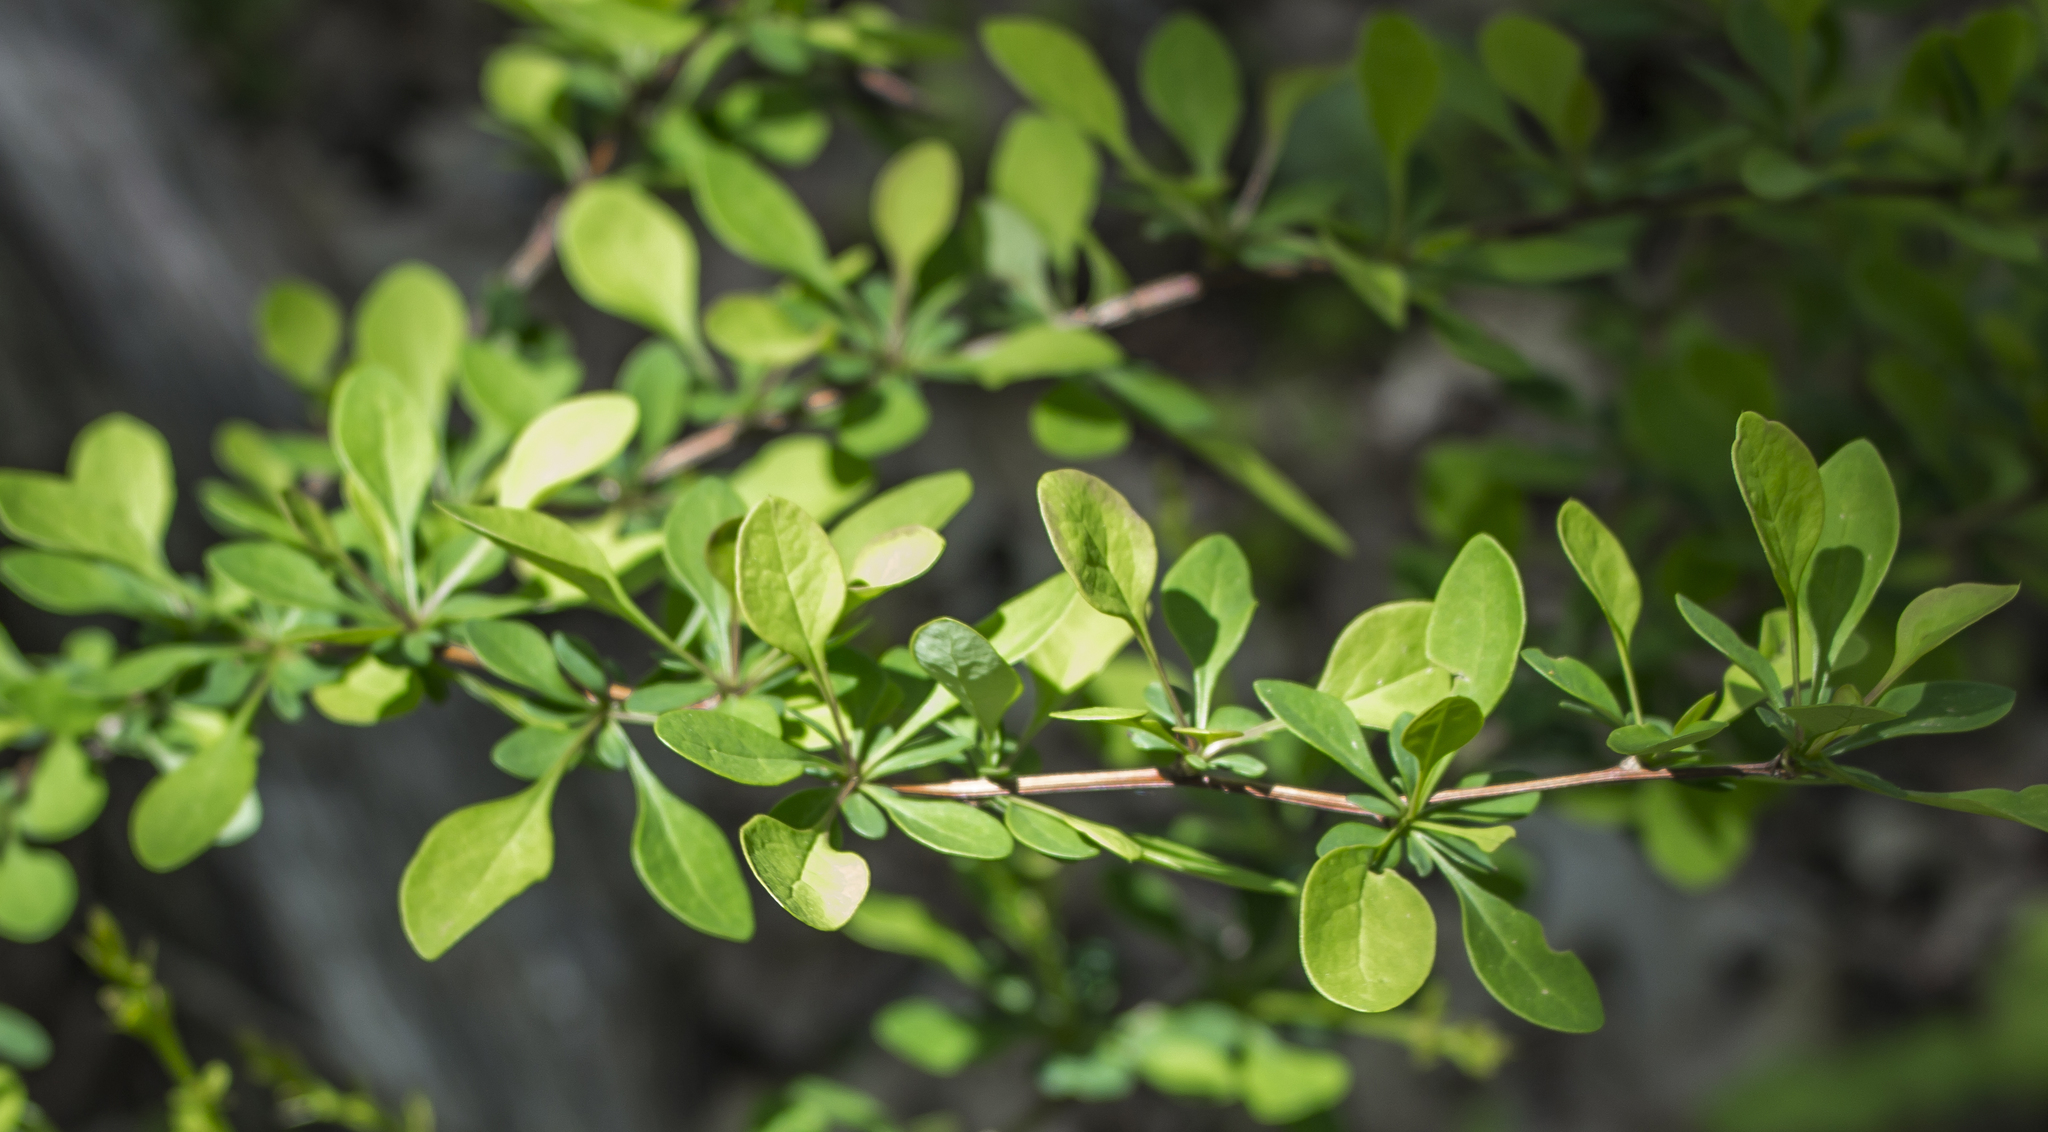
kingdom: Plantae
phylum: Tracheophyta
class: Magnoliopsida
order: Ranunculales
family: Berberidaceae
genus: Berberis
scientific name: Berberis thunbergii
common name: Japanese barberry
